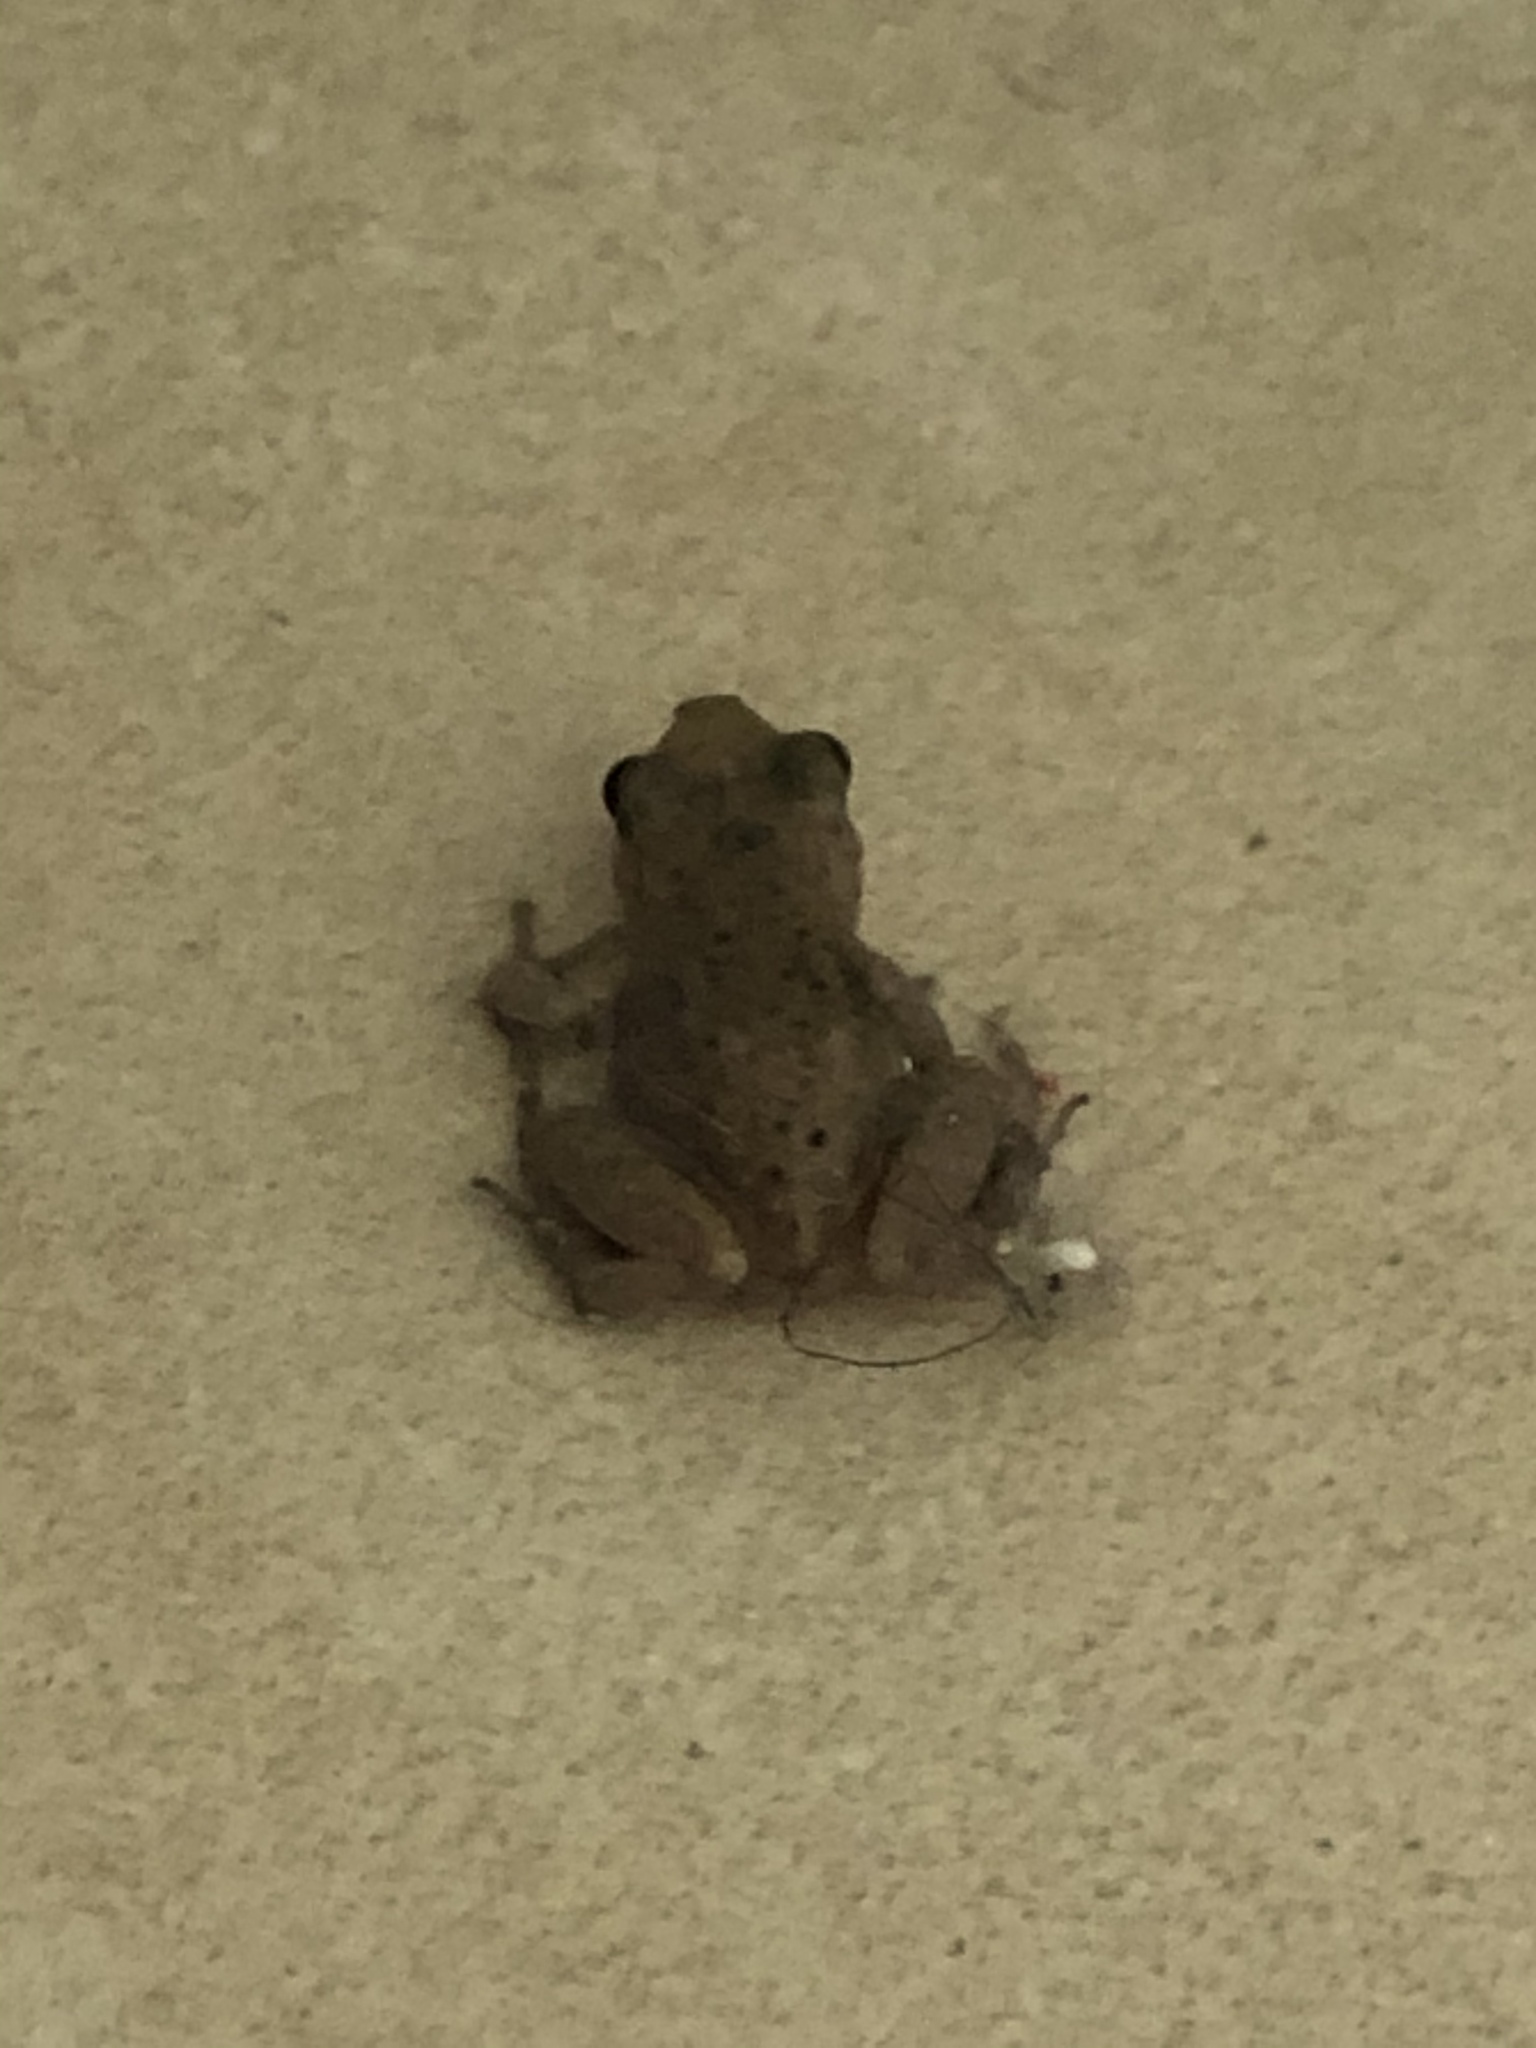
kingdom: Animalia
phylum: Chordata
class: Amphibia
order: Anura
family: Eleutherodactylidae
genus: Eleutherodactylus
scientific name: Eleutherodactylus campi
